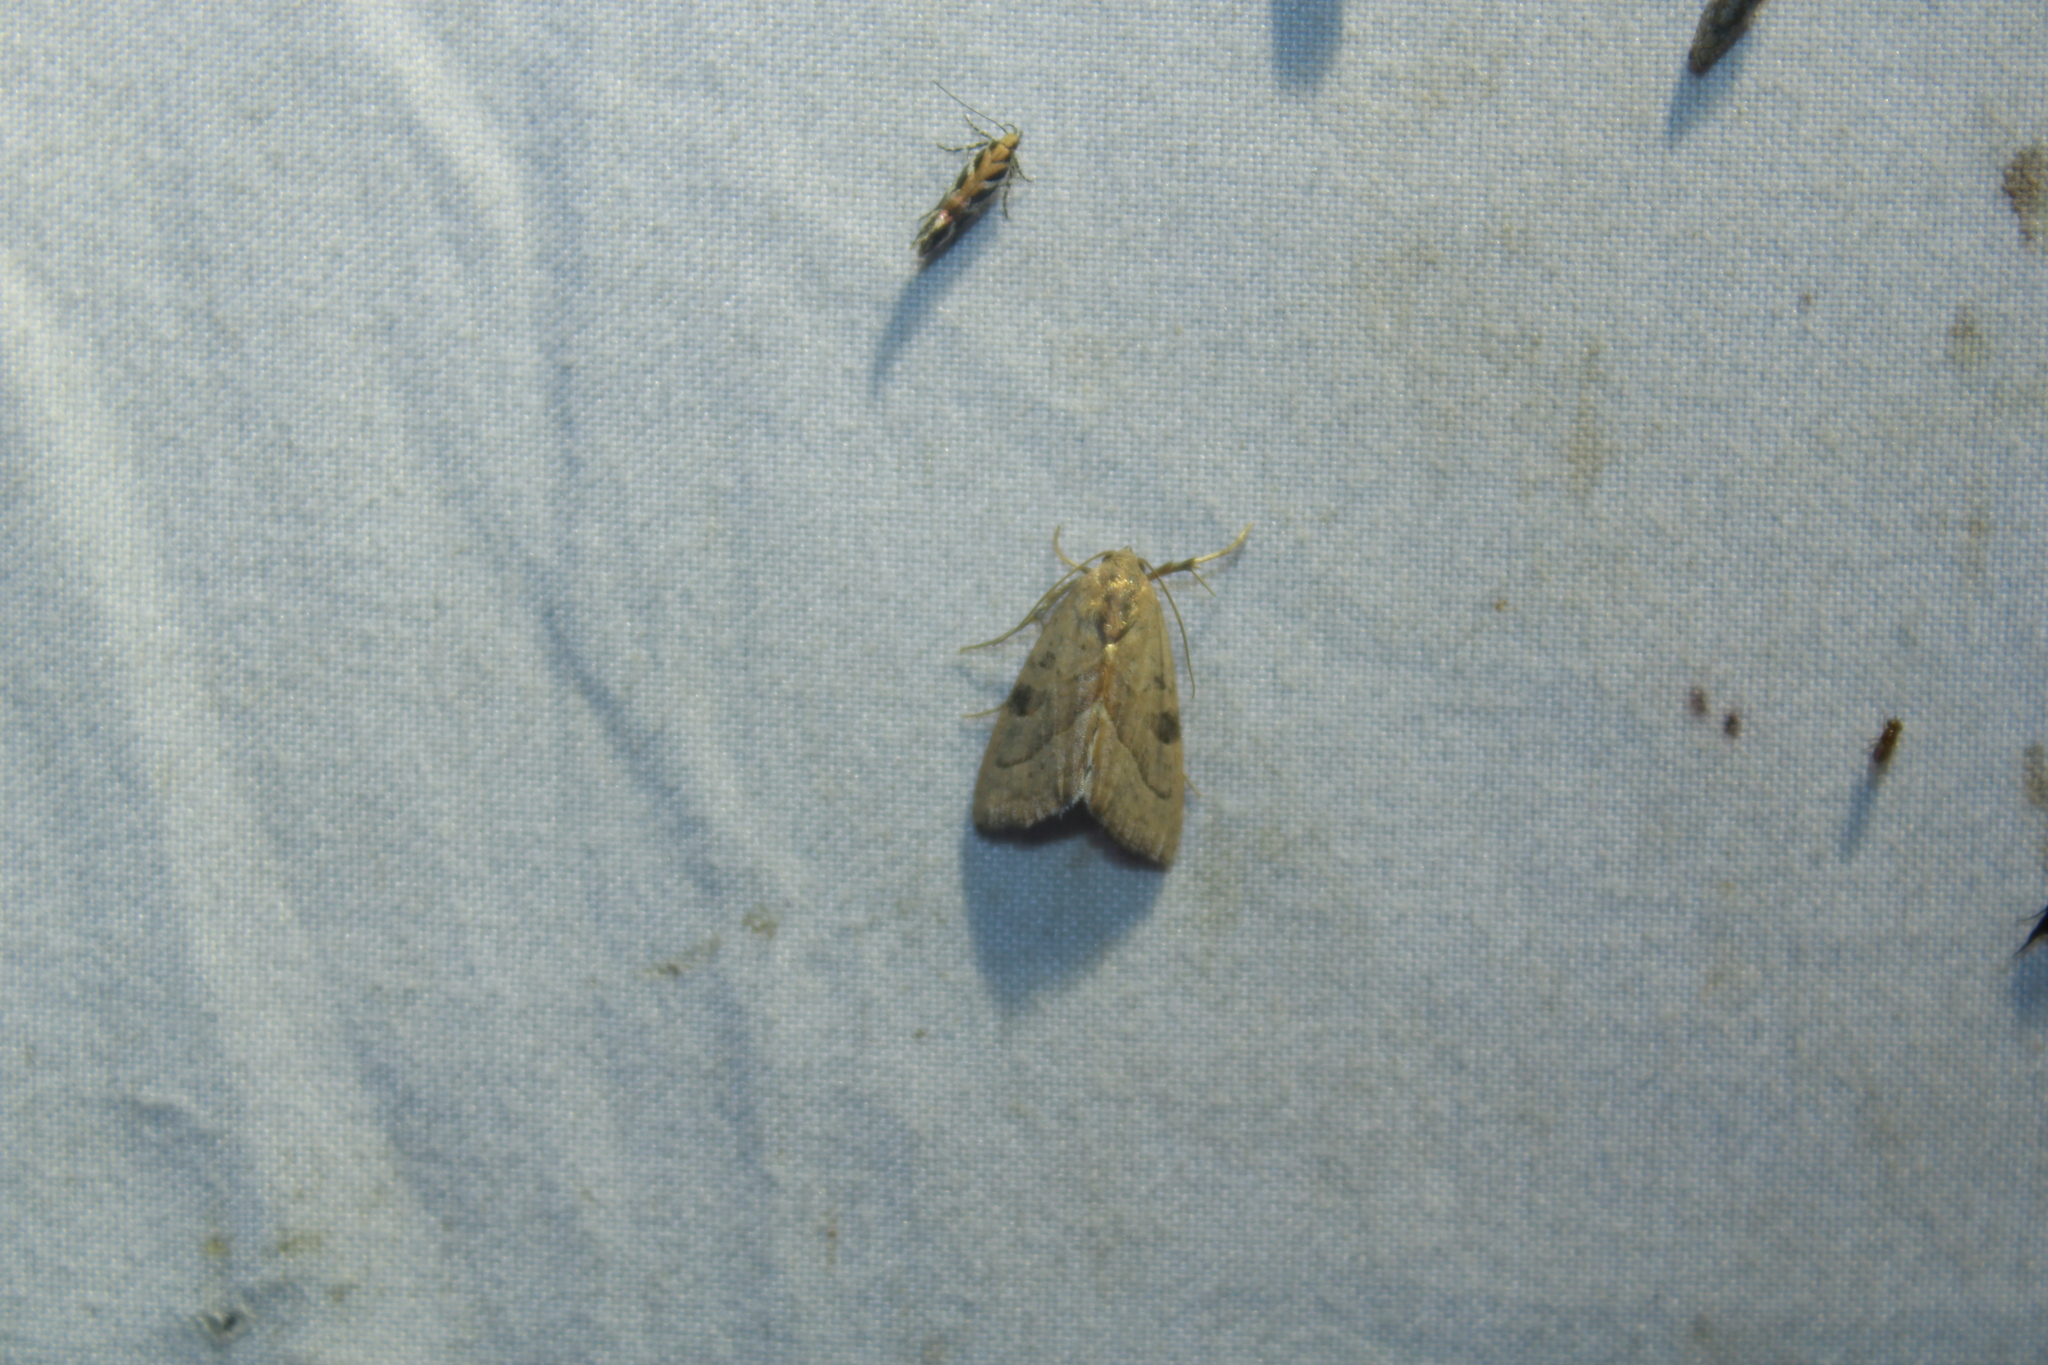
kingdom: Animalia
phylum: Arthropoda
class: Insecta
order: Lepidoptera
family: Noctuidae
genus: Galgula
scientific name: Galgula partita
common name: Wedgeling
